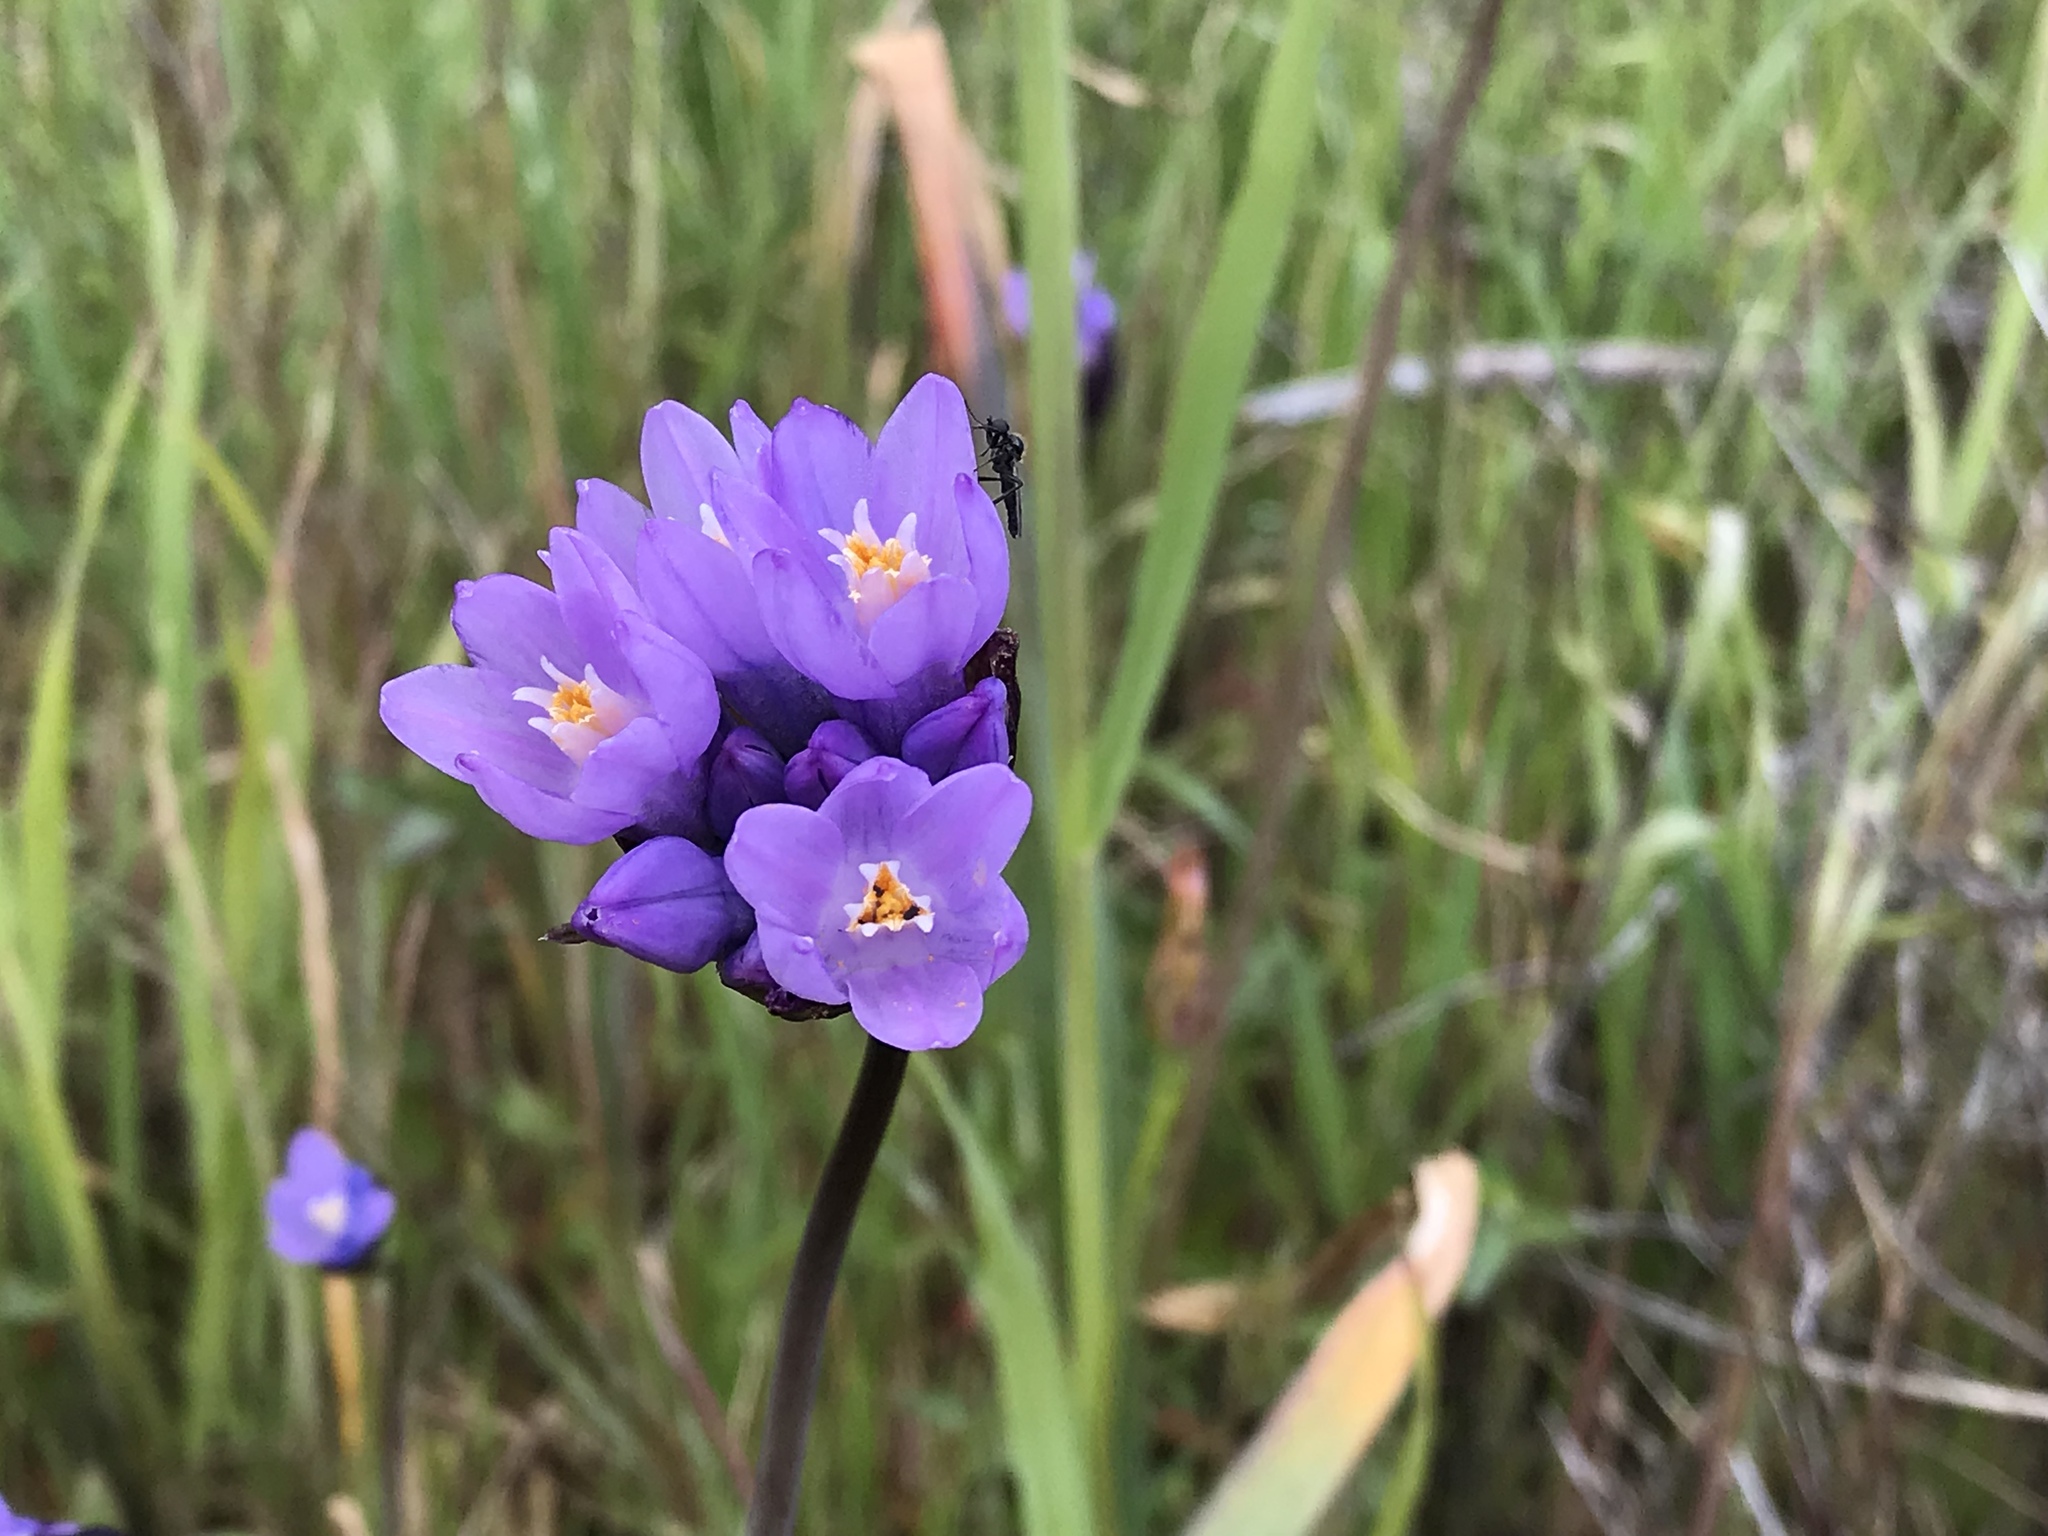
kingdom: Plantae
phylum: Tracheophyta
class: Liliopsida
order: Asparagales
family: Asparagaceae
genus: Dipterostemon
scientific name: Dipterostemon capitatus
